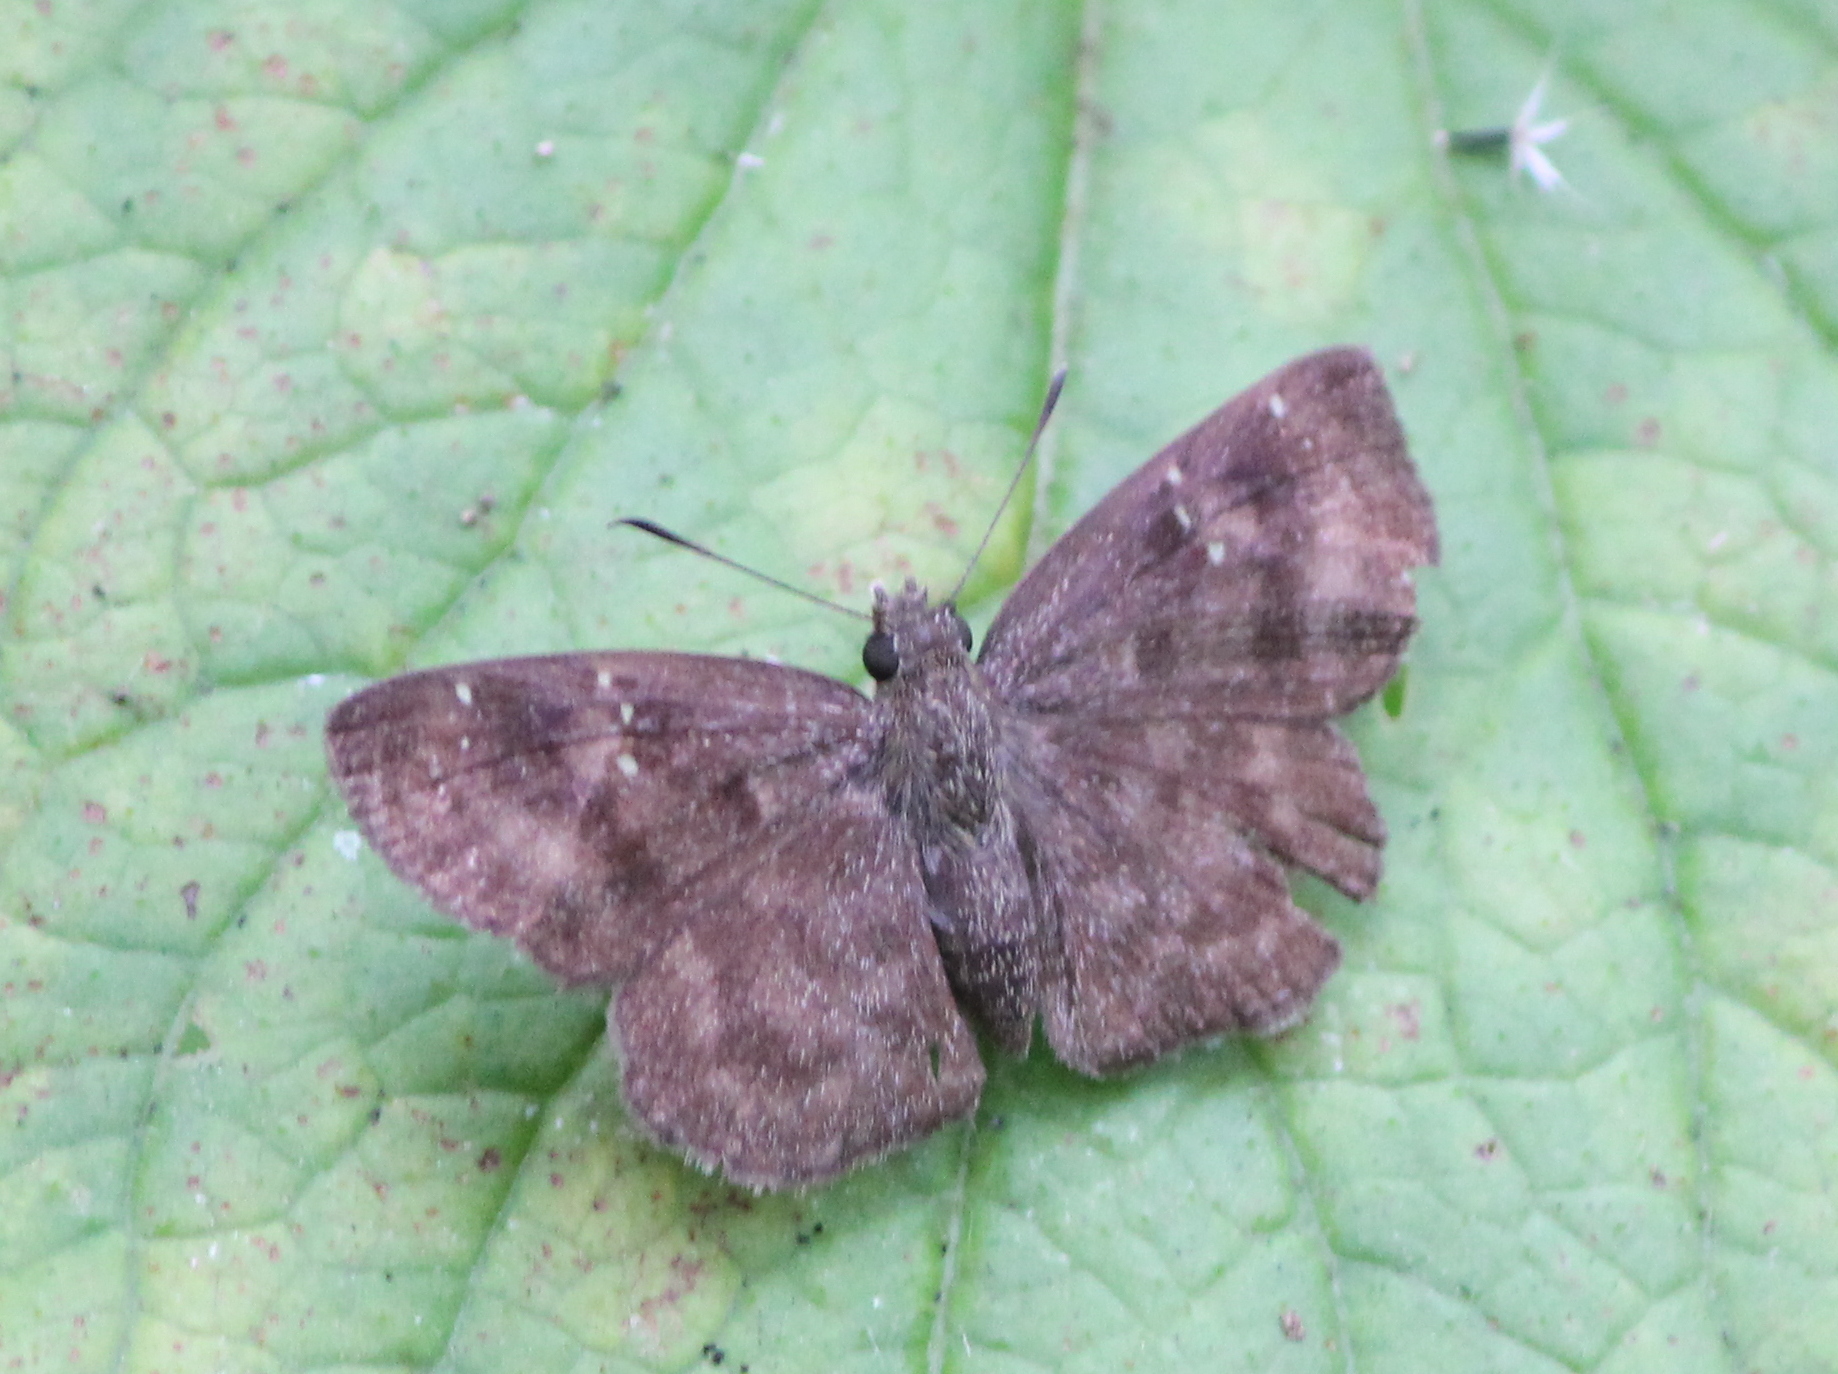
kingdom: Animalia
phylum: Arthropoda
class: Insecta
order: Lepidoptera
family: Hesperiidae
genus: Sarangesa
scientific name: Sarangesa dasahara
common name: Common small flat
